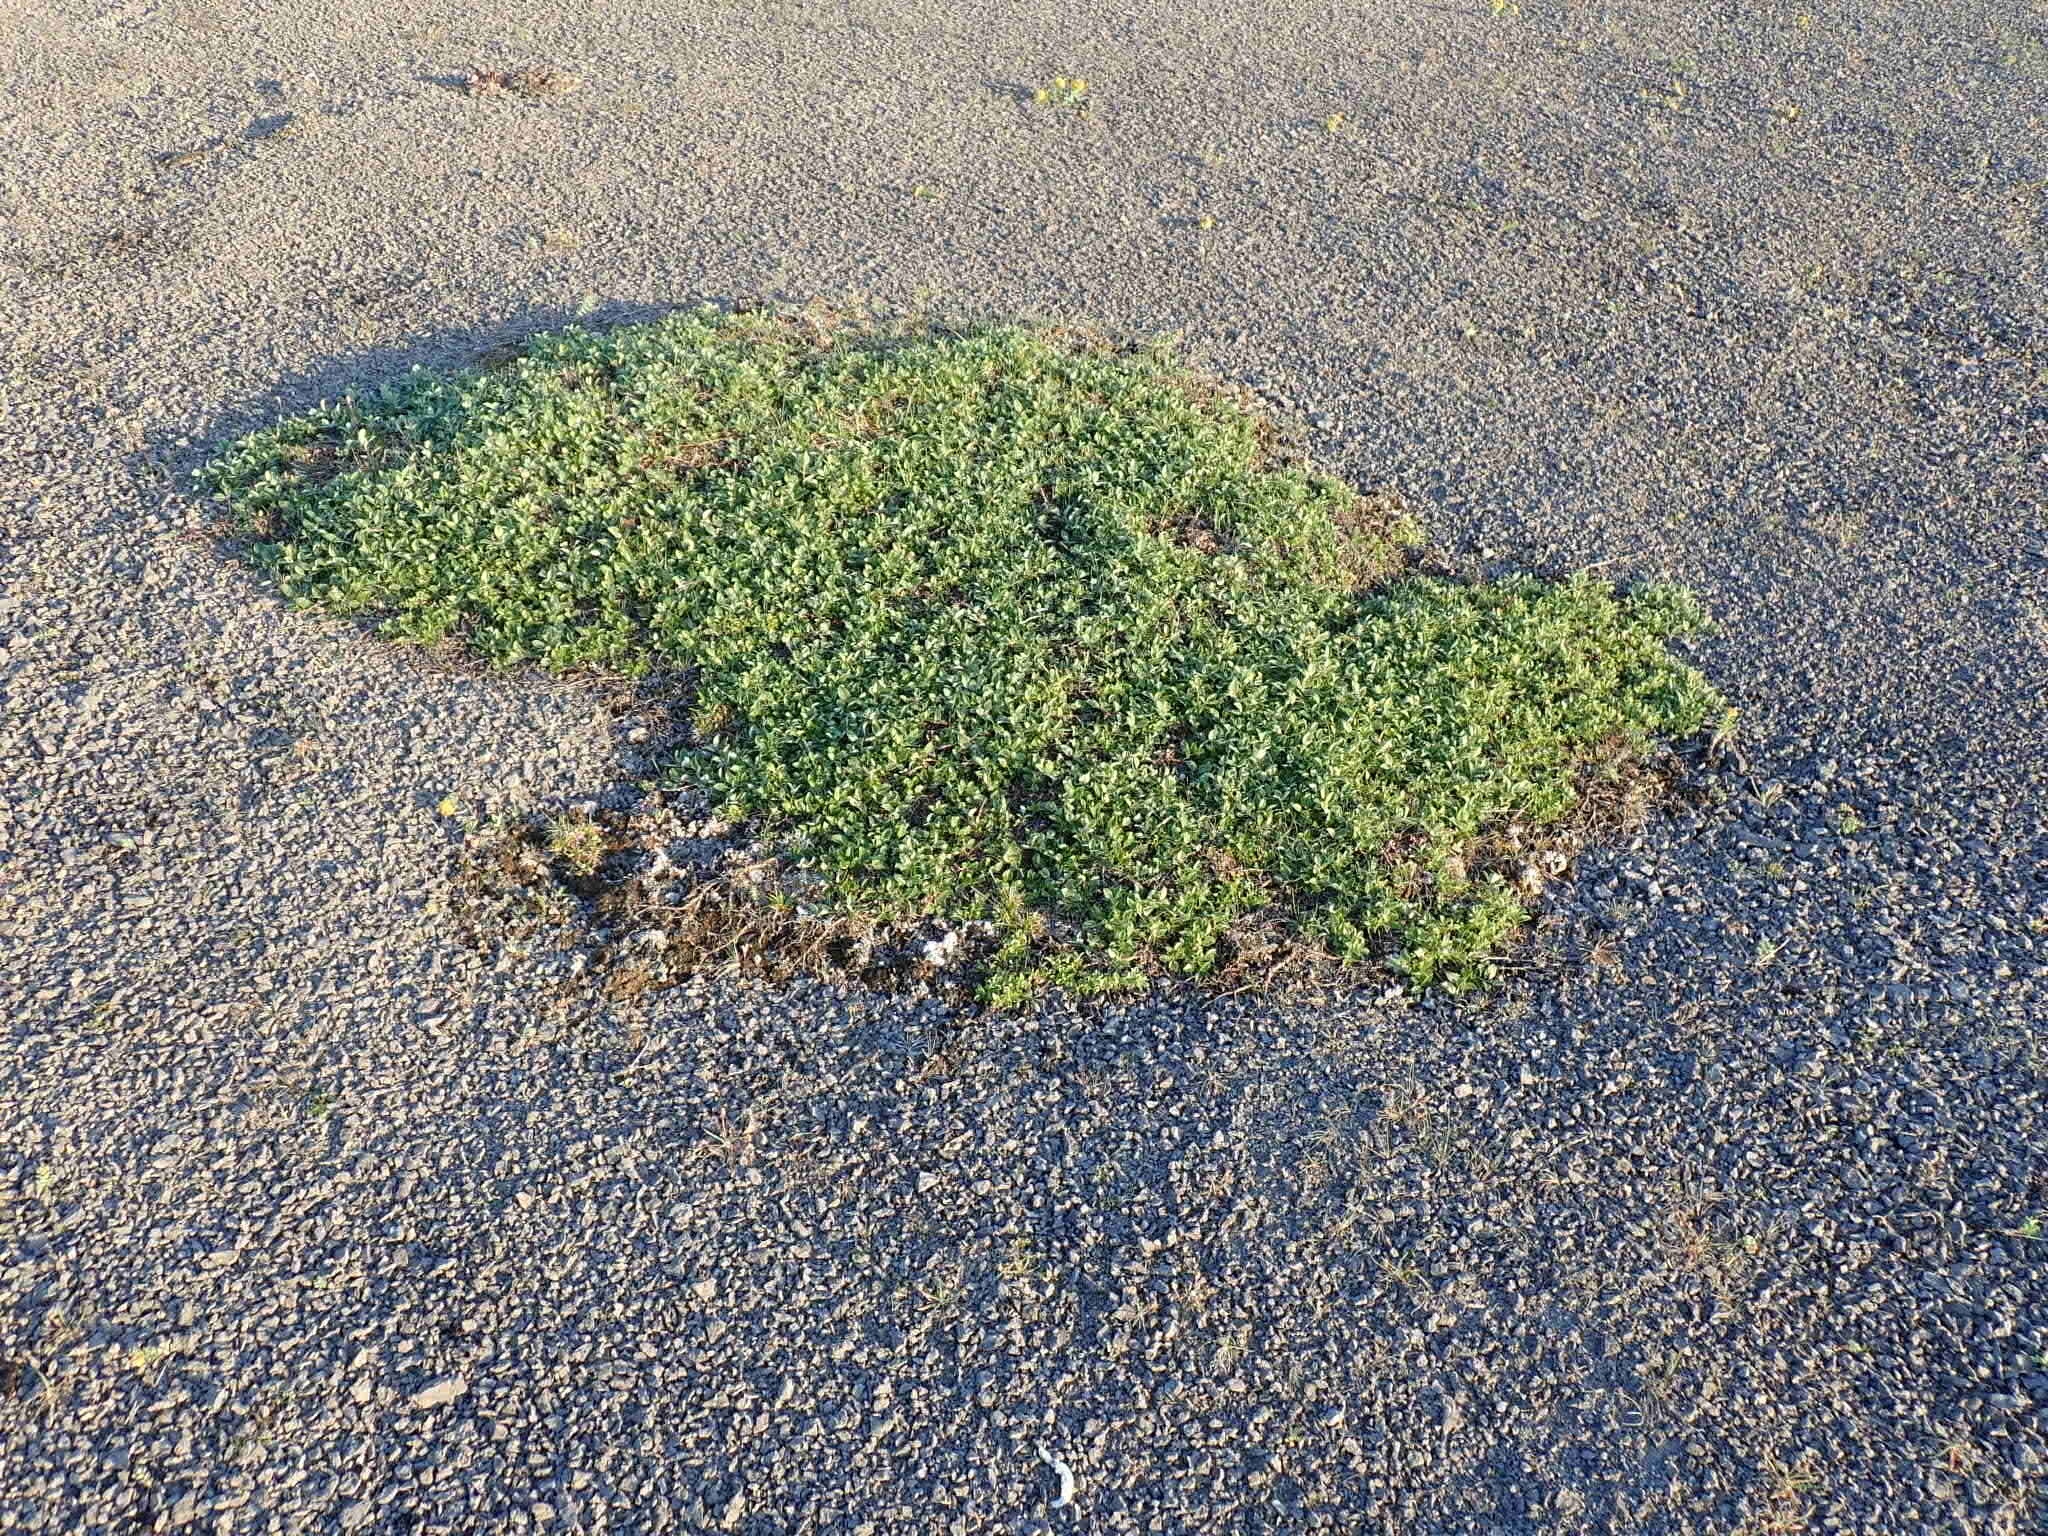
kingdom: Plantae
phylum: Tracheophyta
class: Magnoliopsida
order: Malpighiales
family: Salicaceae
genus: Salix
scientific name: Salix glauca
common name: Glaucous willow
